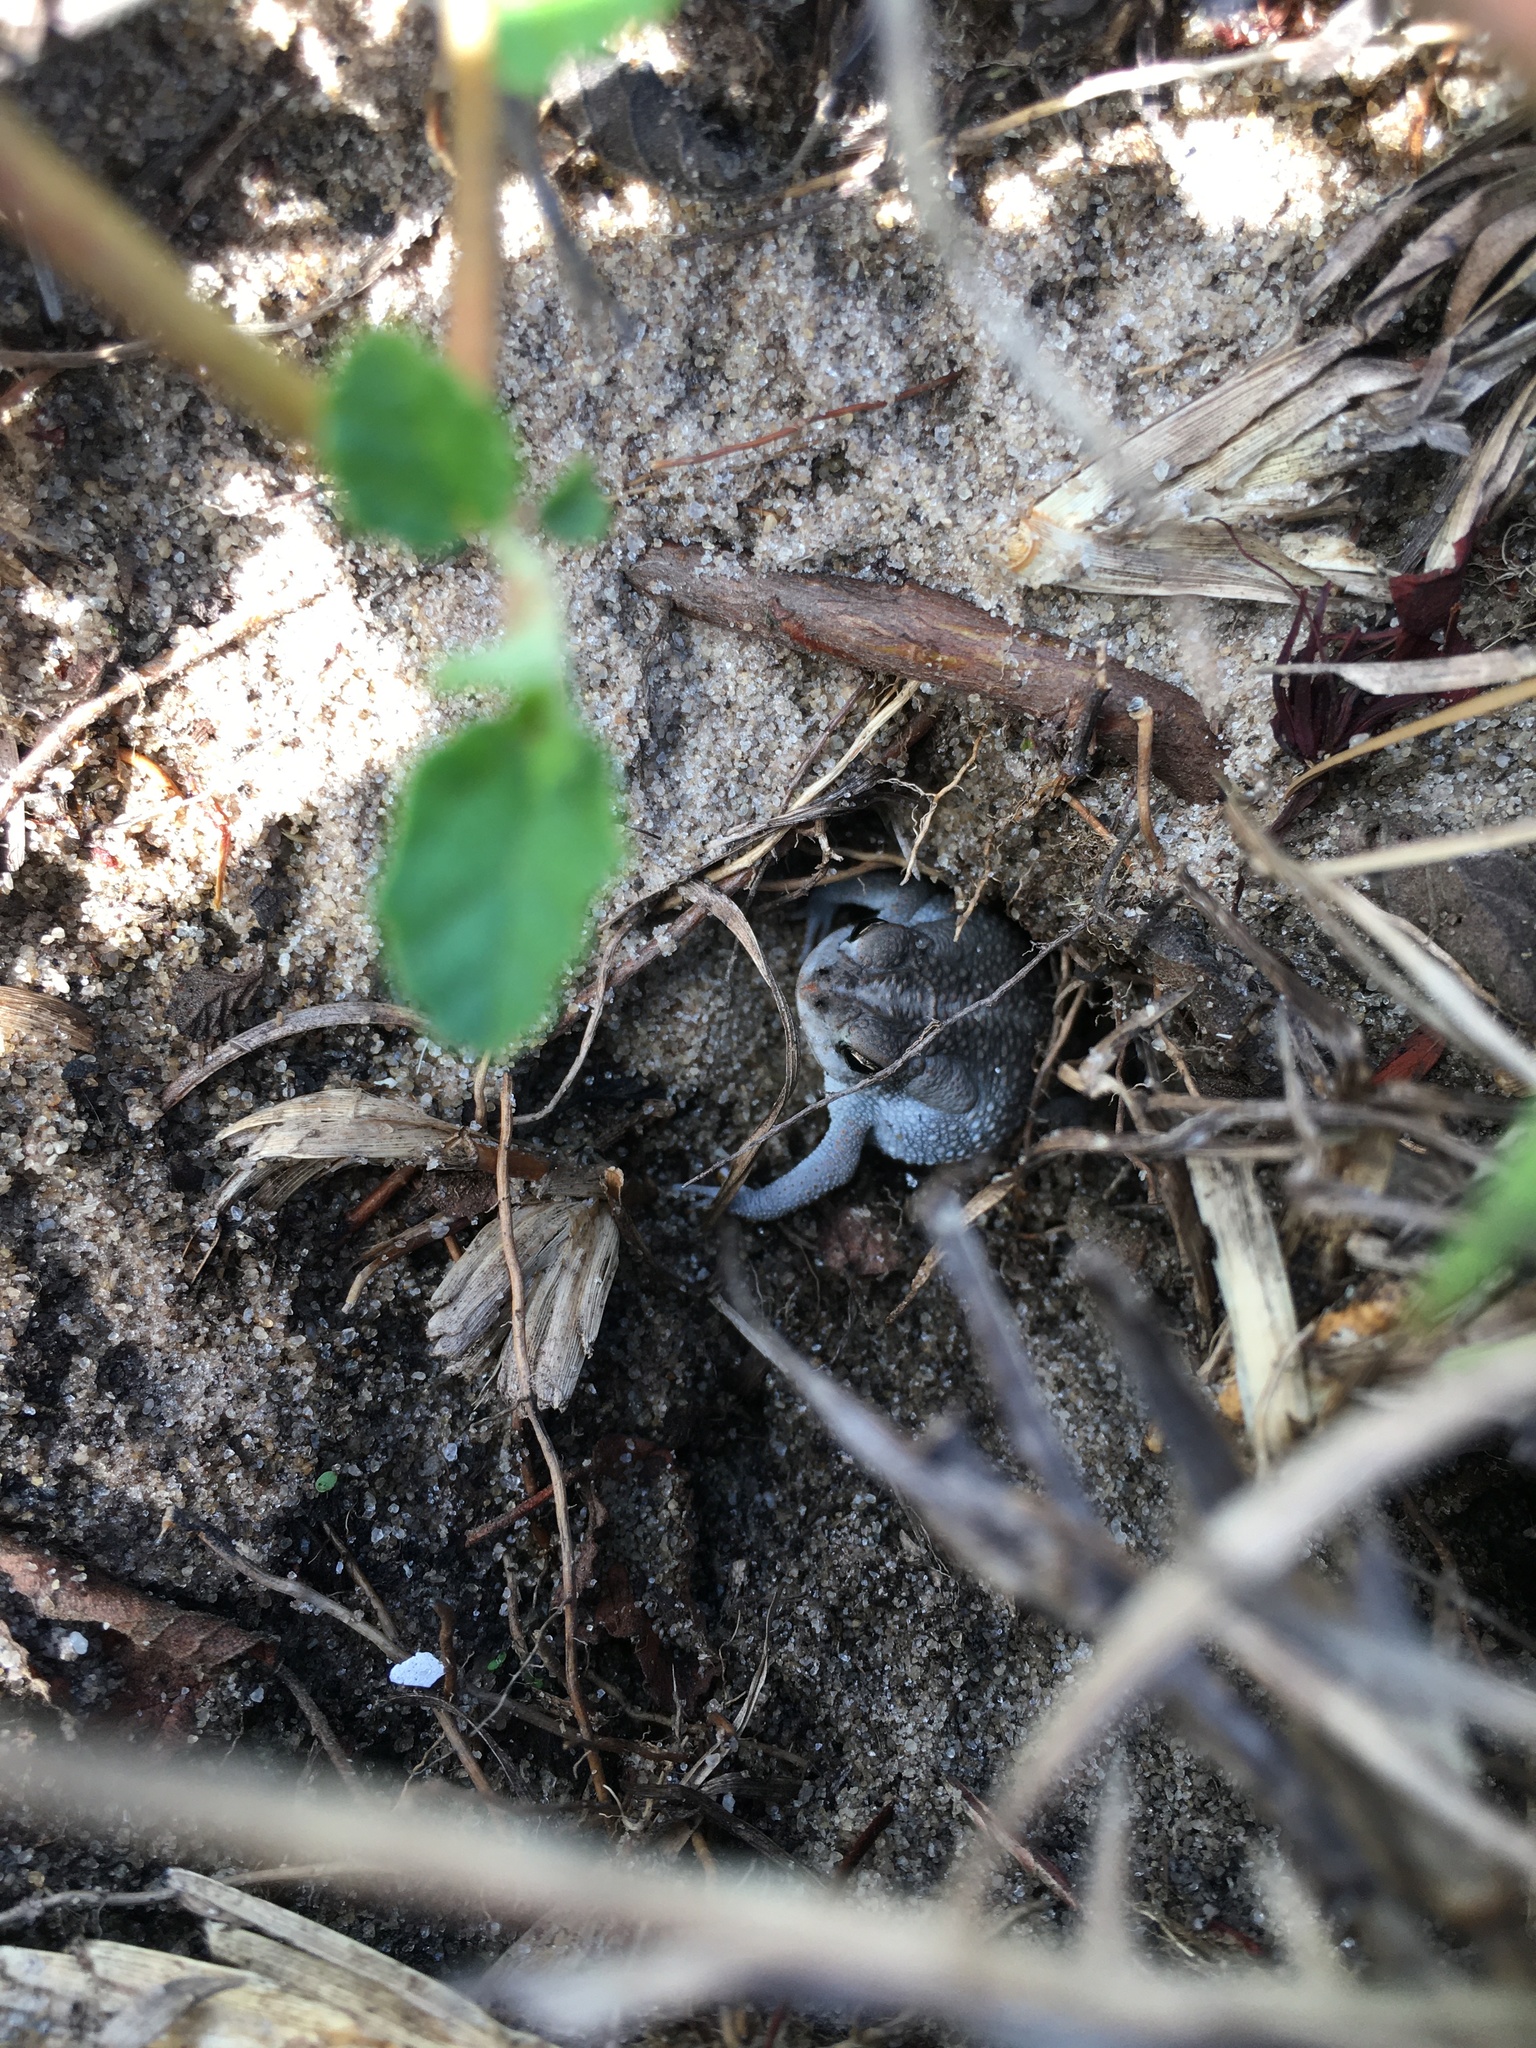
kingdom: Animalia
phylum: Chordata
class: Amphibia
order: Anura
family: Bufonidae
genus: Anaxyrus
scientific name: Anaxyrus quercicus
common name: Oak toad
